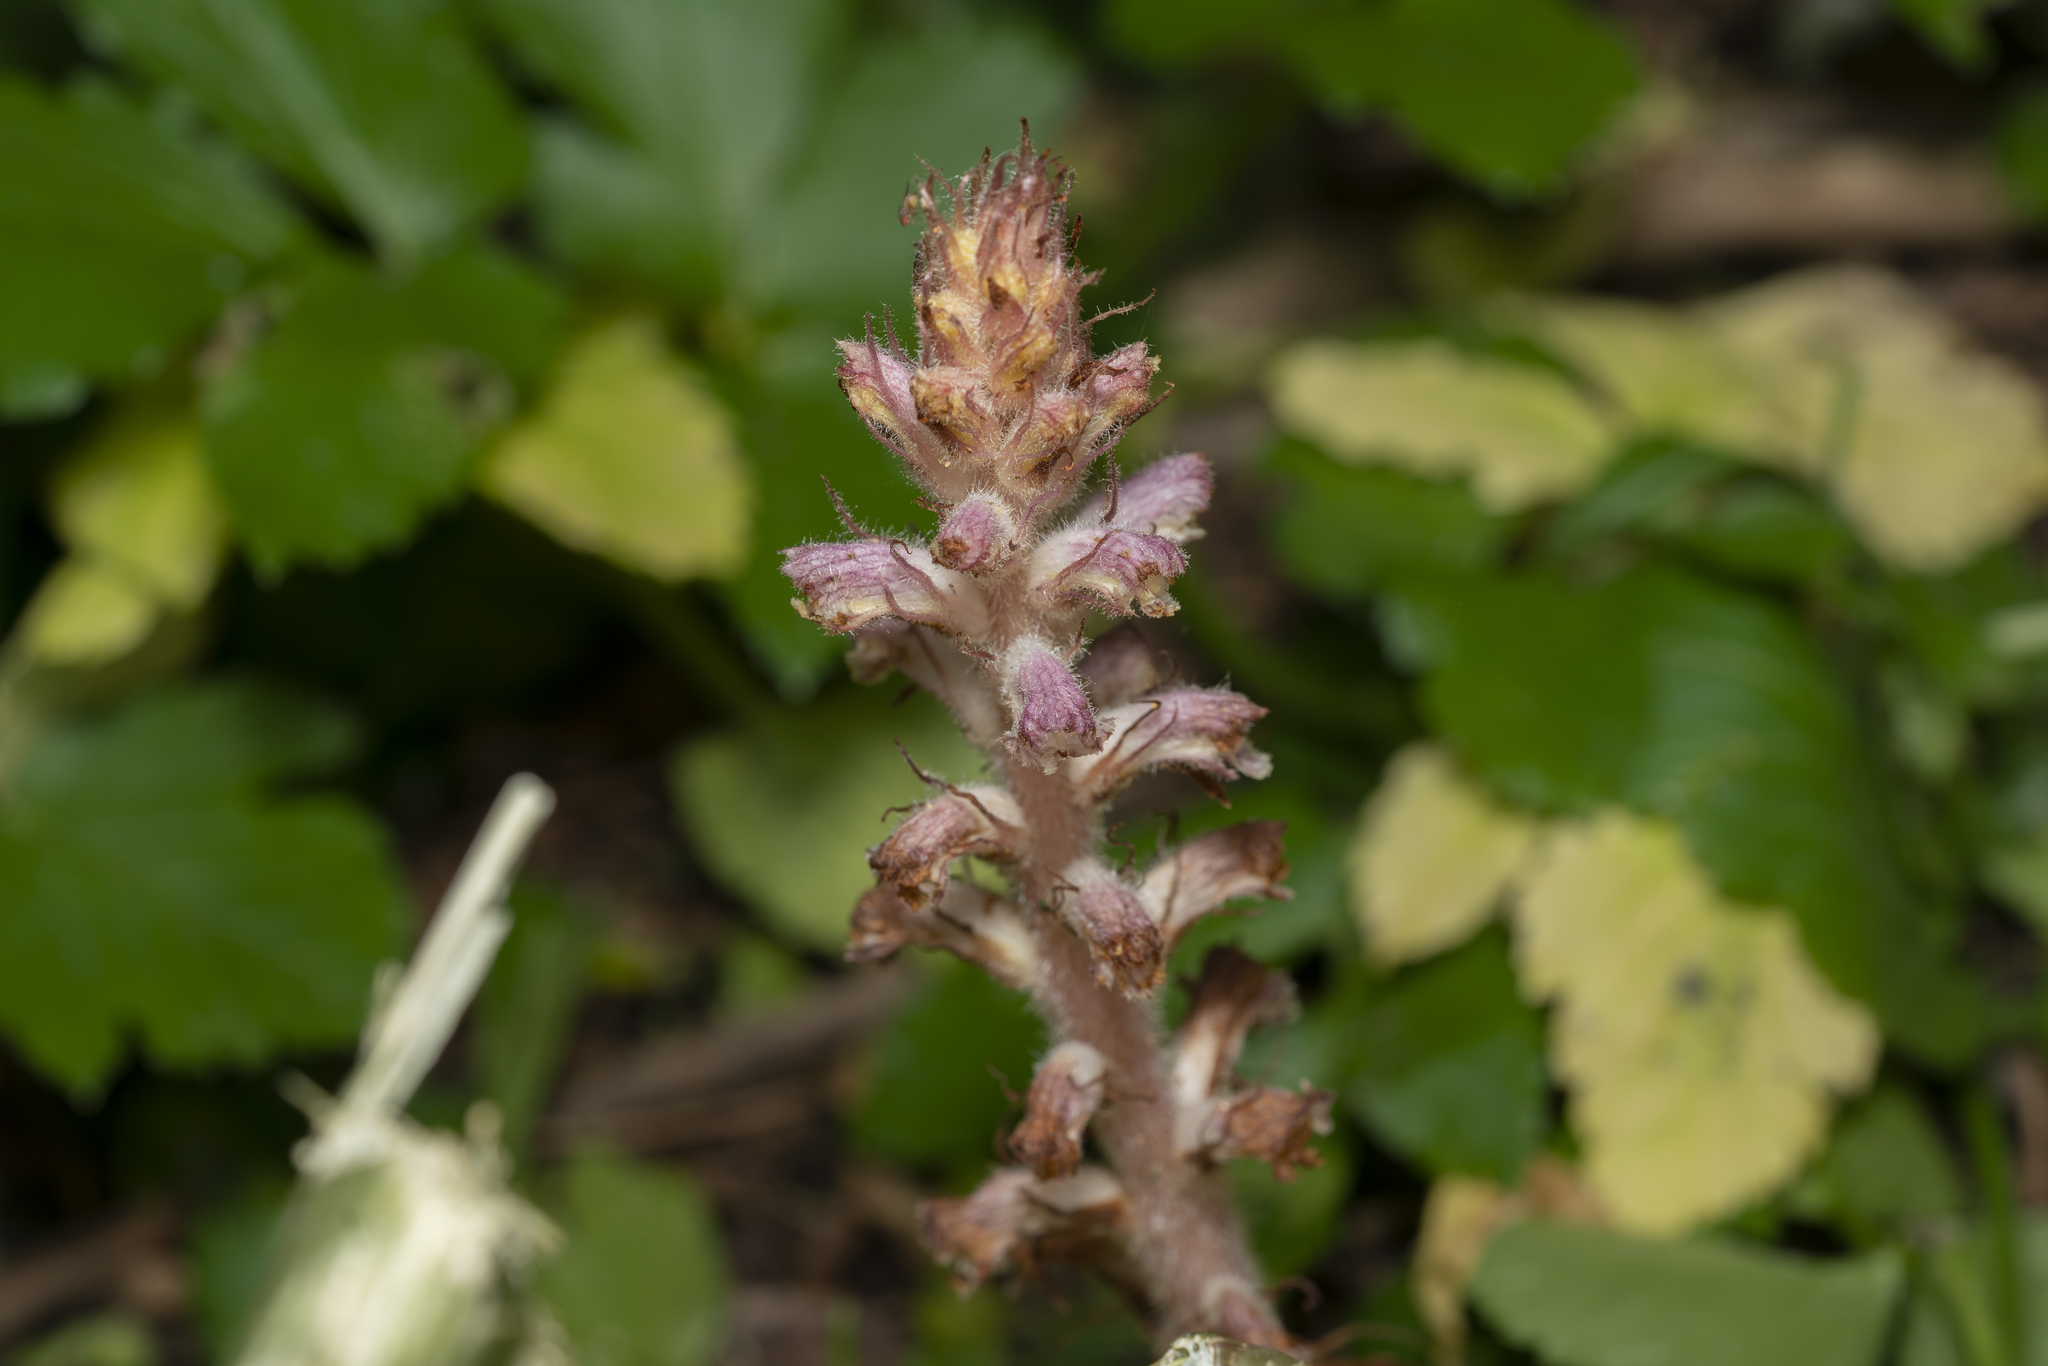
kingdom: Plantae
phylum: Tracheophyta
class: Magnoliopsida
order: Lamiales
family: Orobanchaceae
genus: Orobanche
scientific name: Orobanche pubescens
